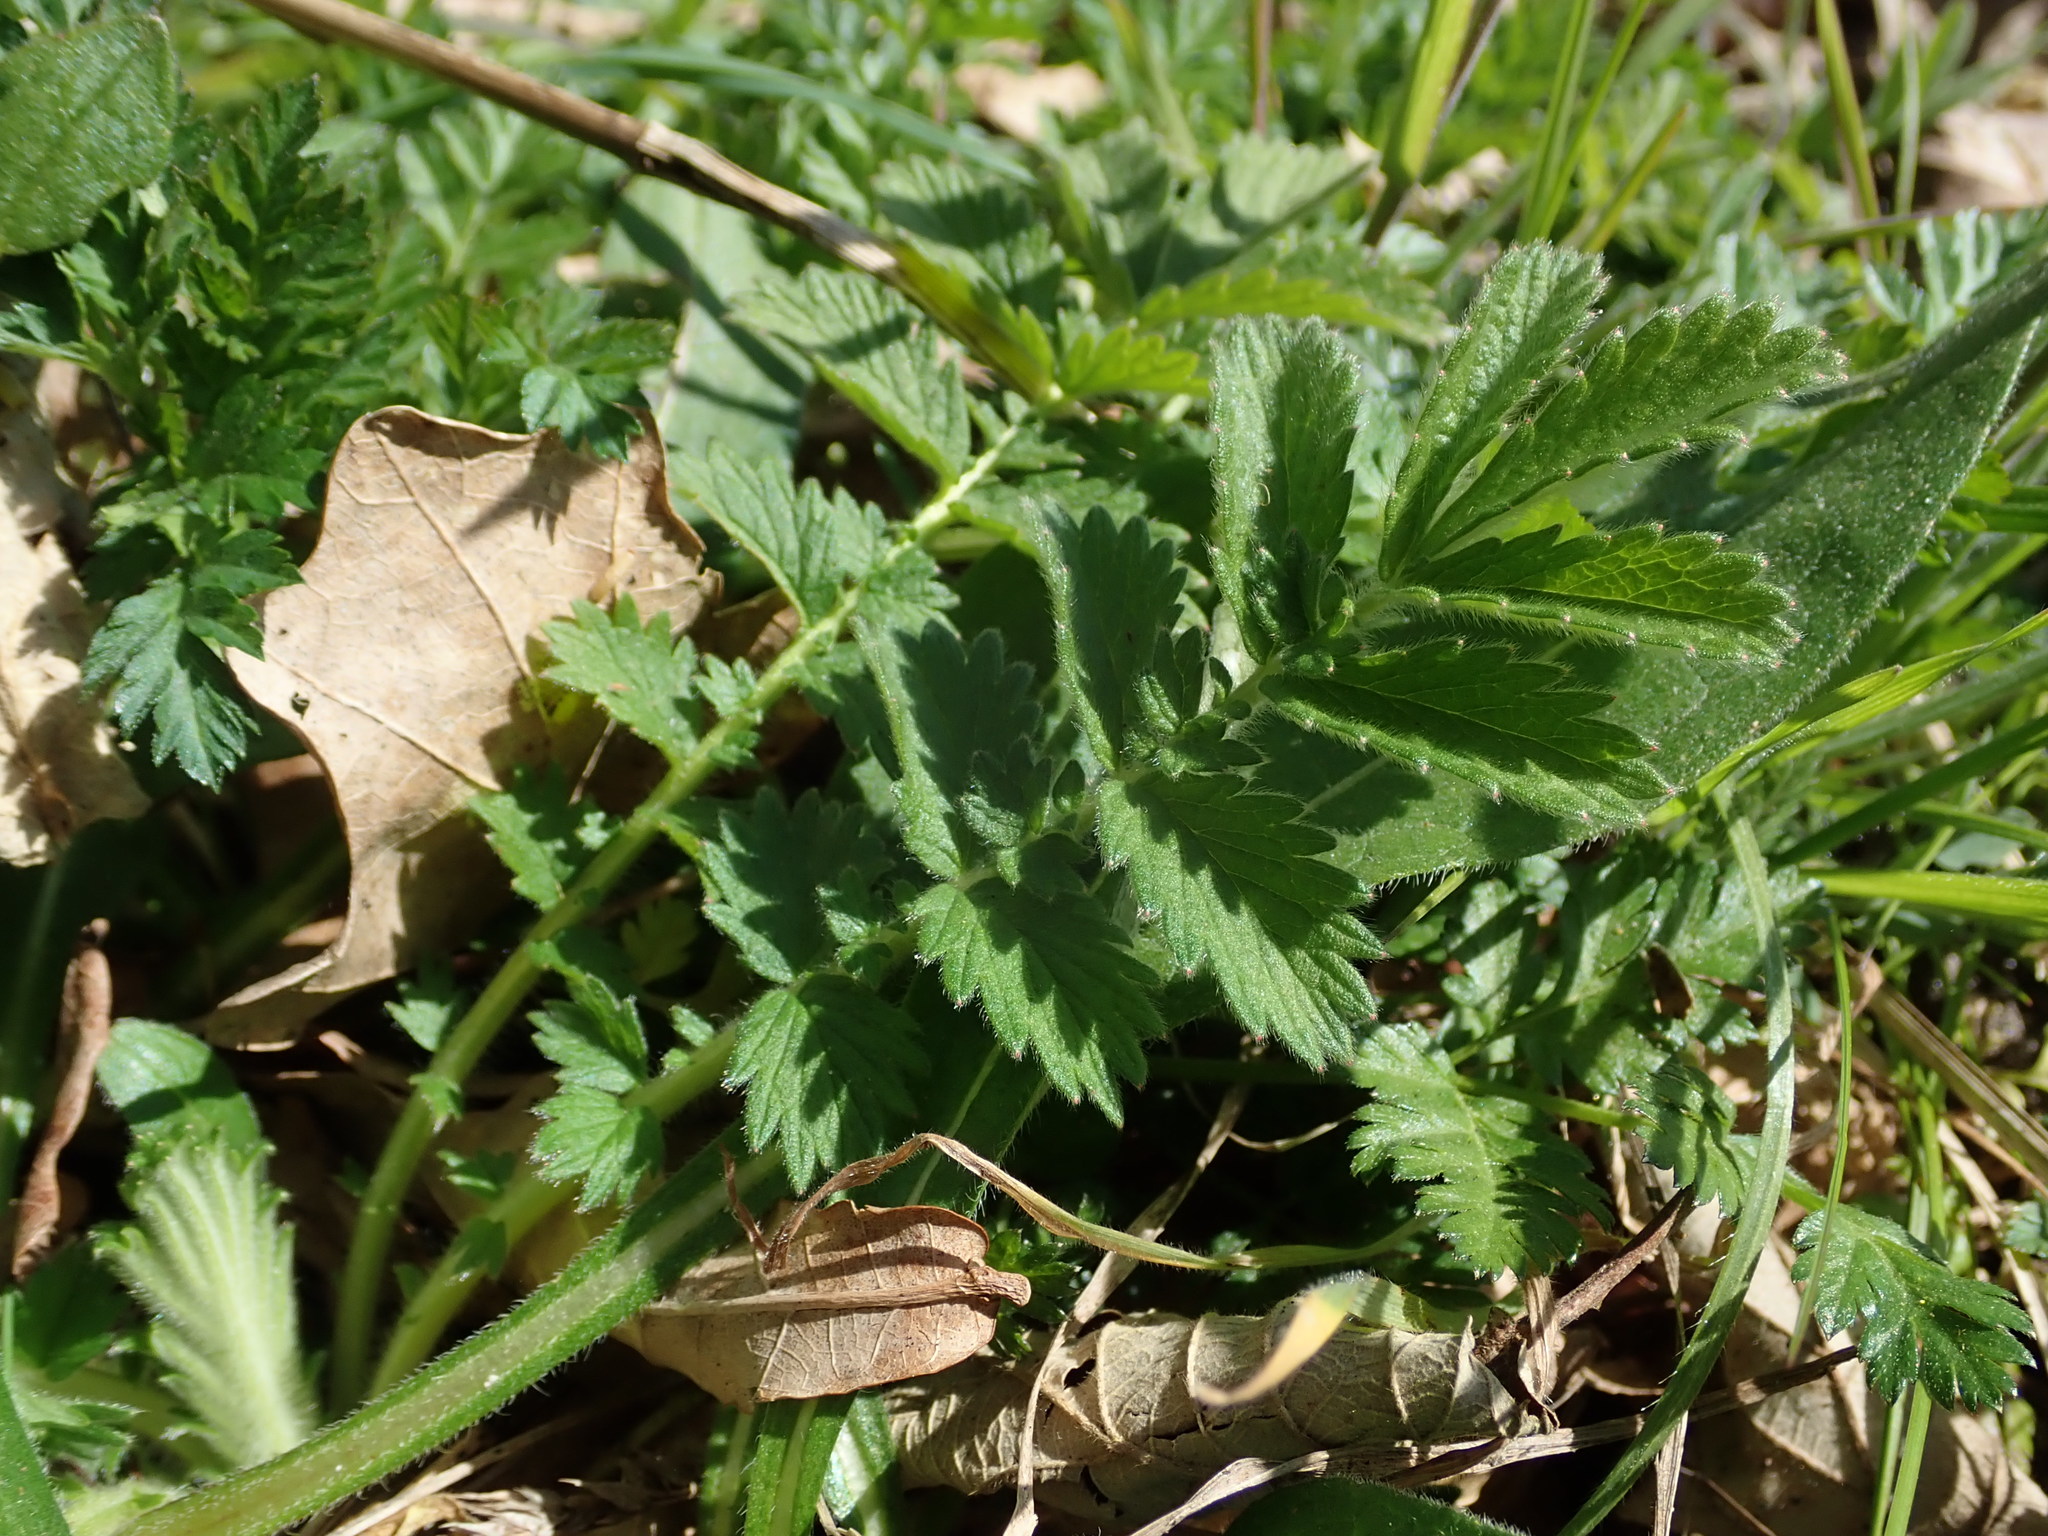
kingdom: Plantae
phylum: Tracheophyta
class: Magnoliopsida
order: Rosales
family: Rosaceae
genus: Agrimonia
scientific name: Agrimonia eupatoria
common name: Agrimony
